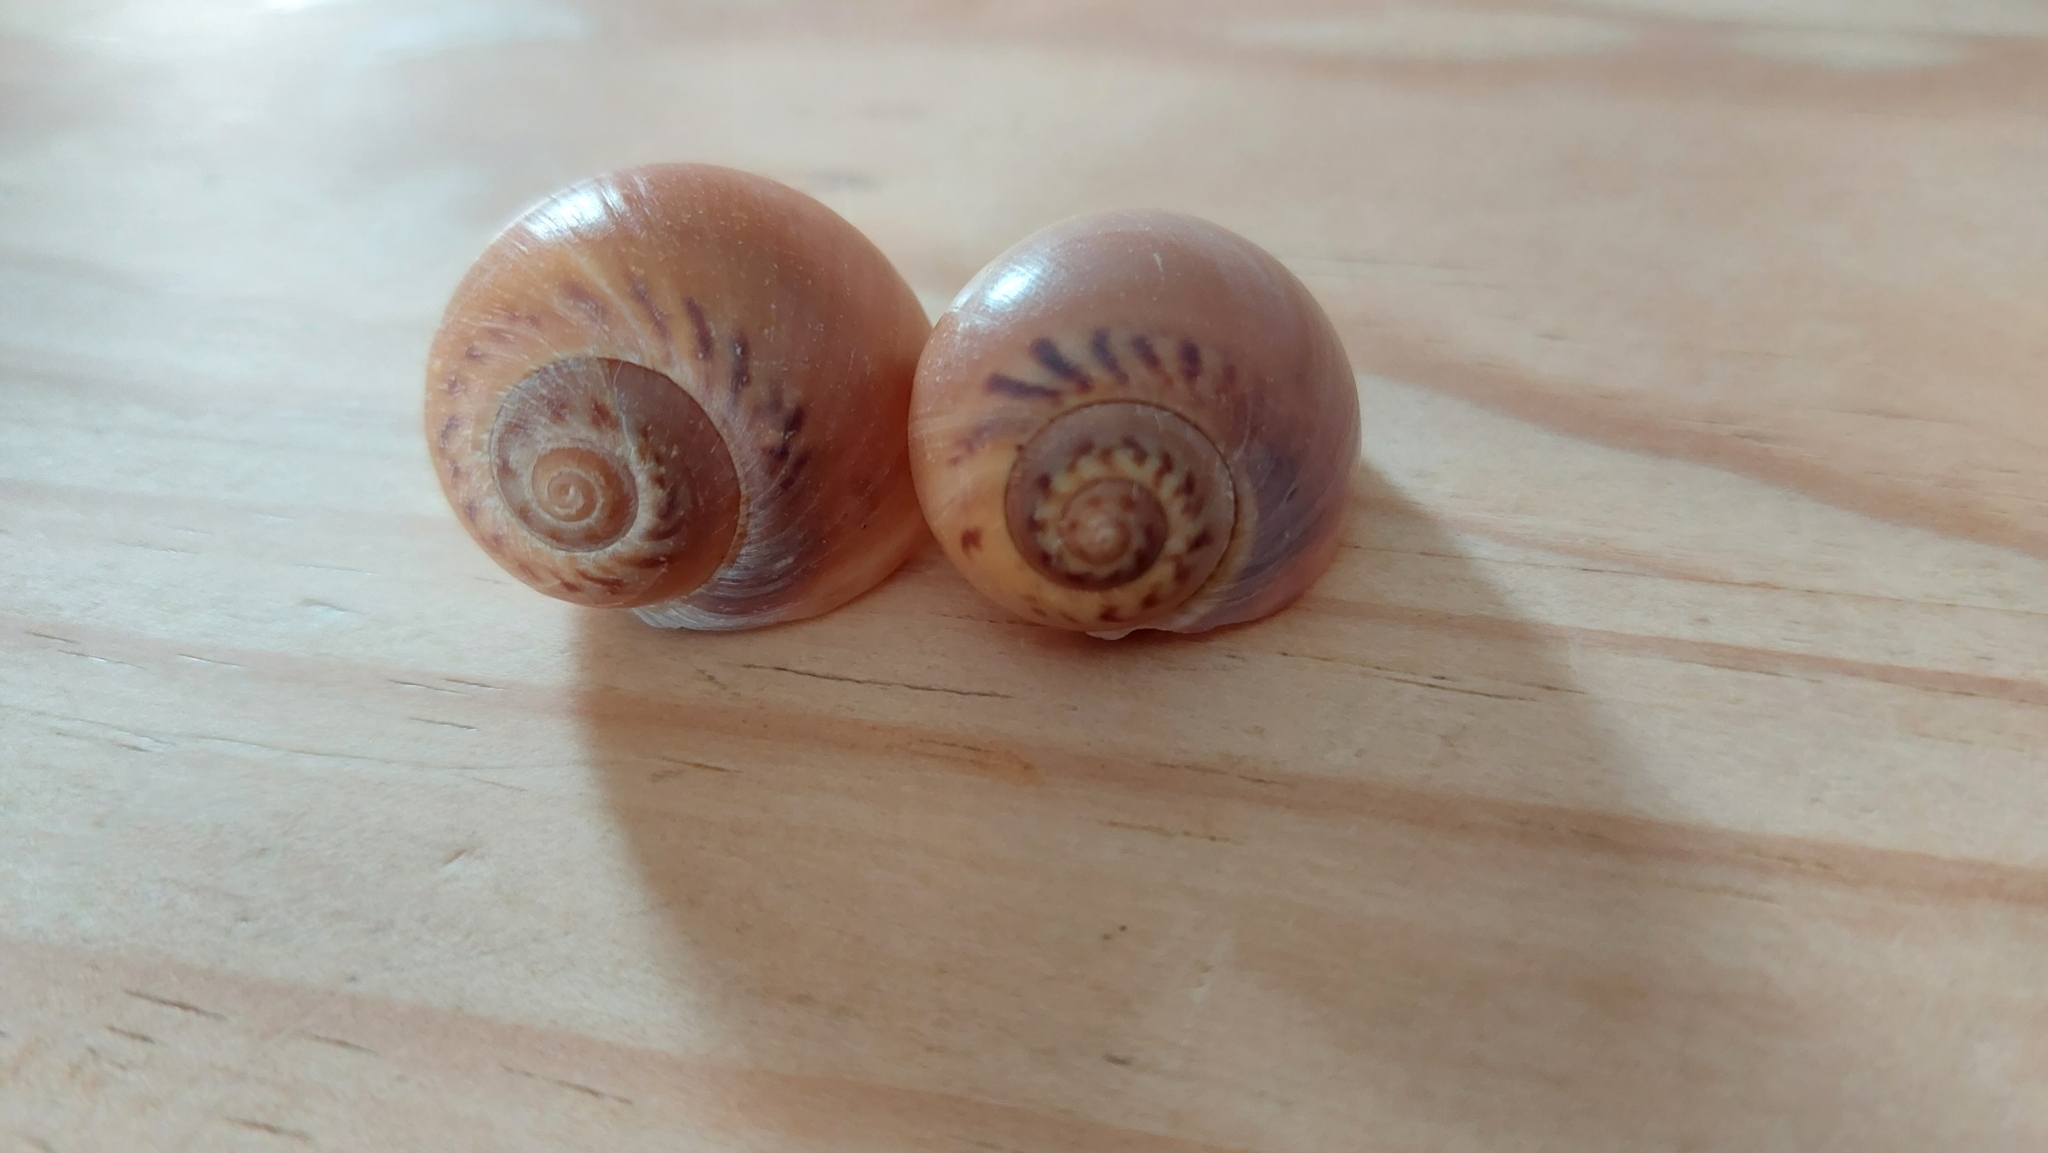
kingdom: Animalia
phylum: Mollusca
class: Gastropoda
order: Littorinimorpha
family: Naticidae
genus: Euspira
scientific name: Euspira catena
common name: Necklace shell
